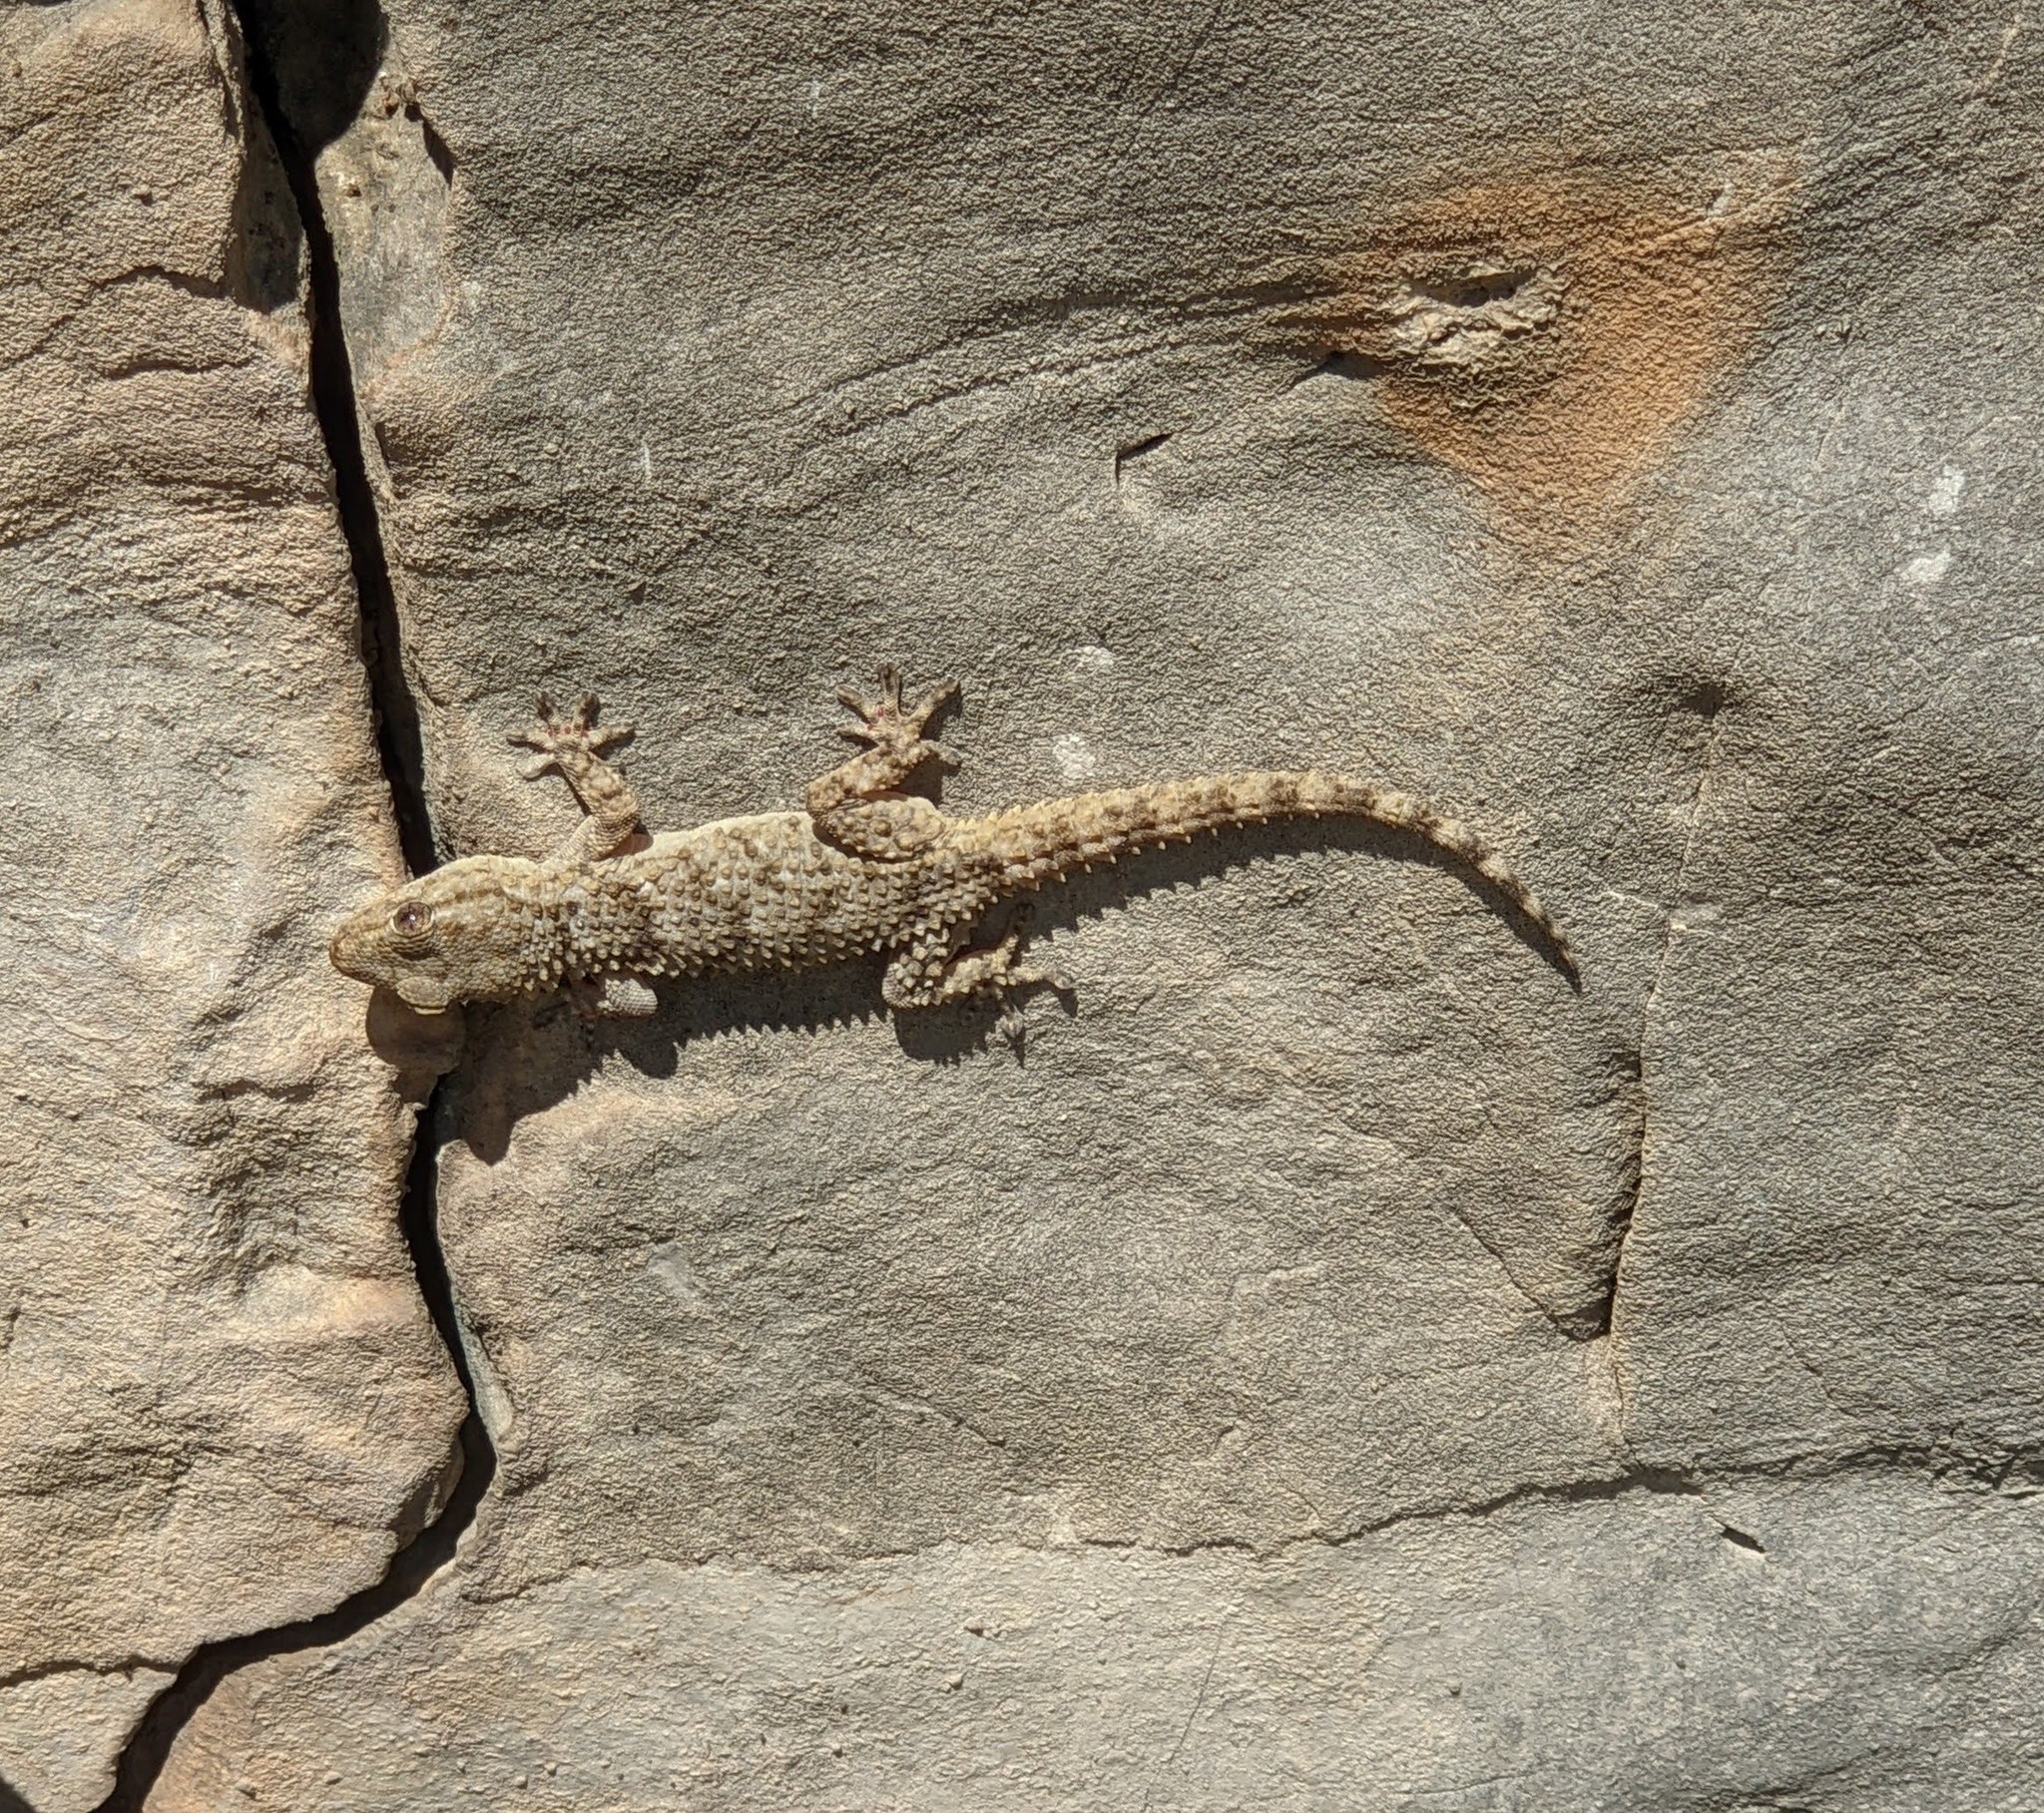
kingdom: Animalia
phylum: Chordata
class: Squamata
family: Phyllodactylidae
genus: Tarentola
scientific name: Tarentola mauritanica
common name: Moorish gecko
